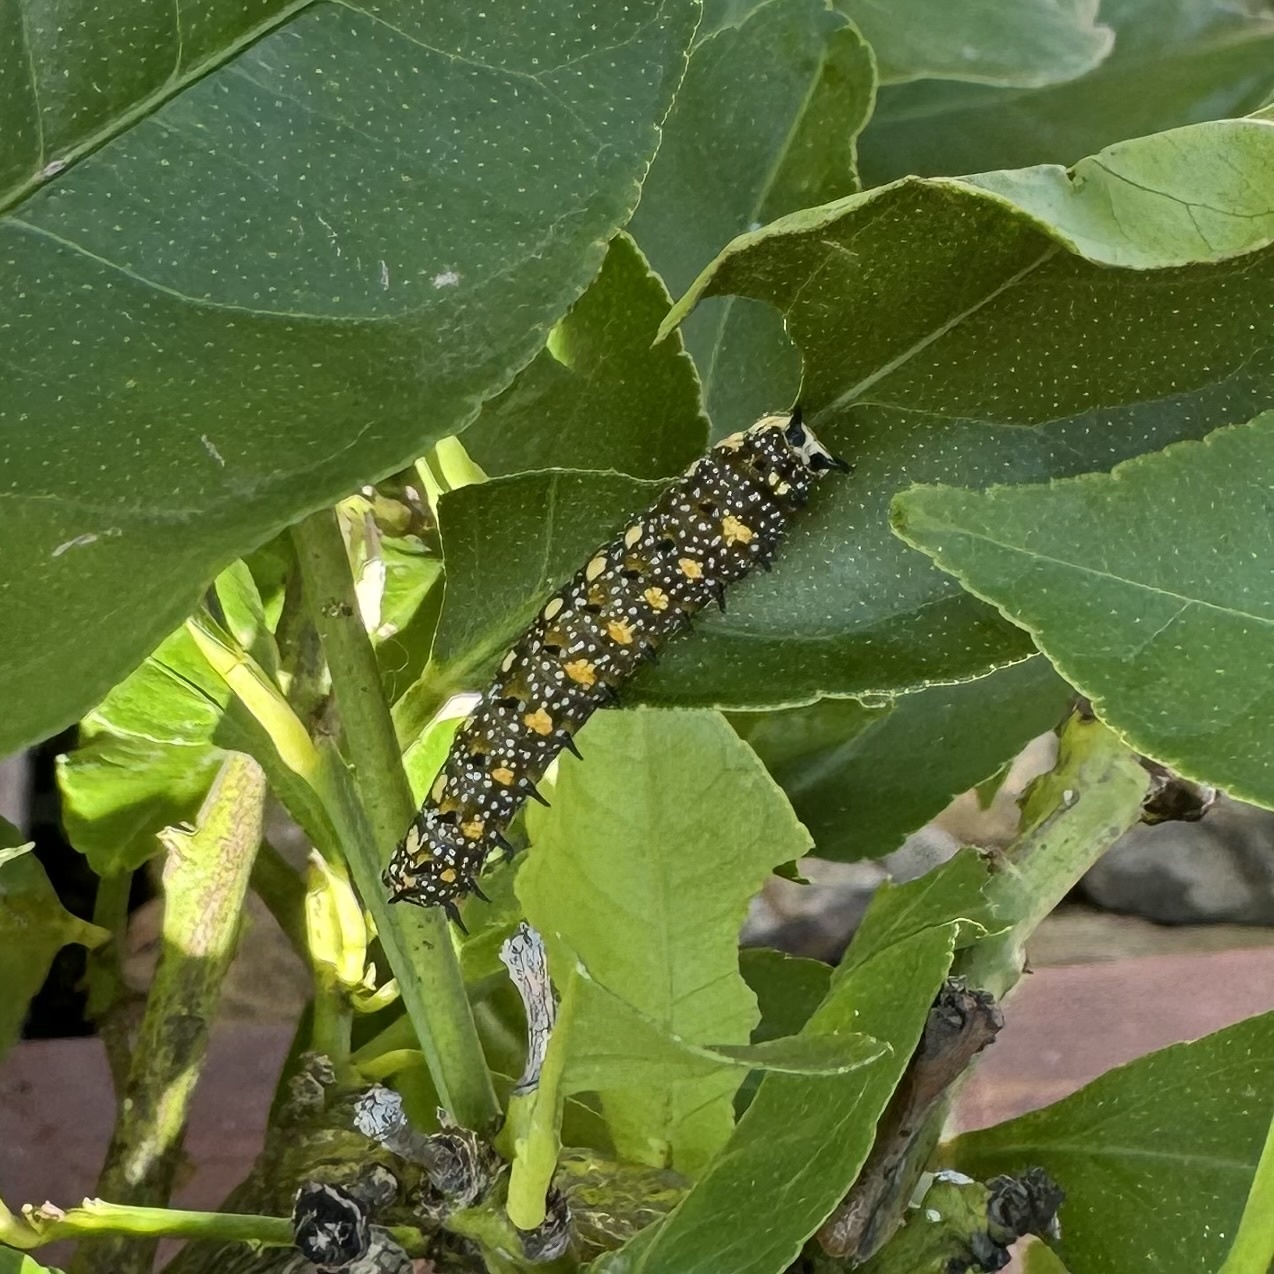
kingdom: Animalia
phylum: Arthropoda
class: Insecta
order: Lepidoptera
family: Papilionidae
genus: Papilio
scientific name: Papilio anactus
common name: Dingy swallowtail
